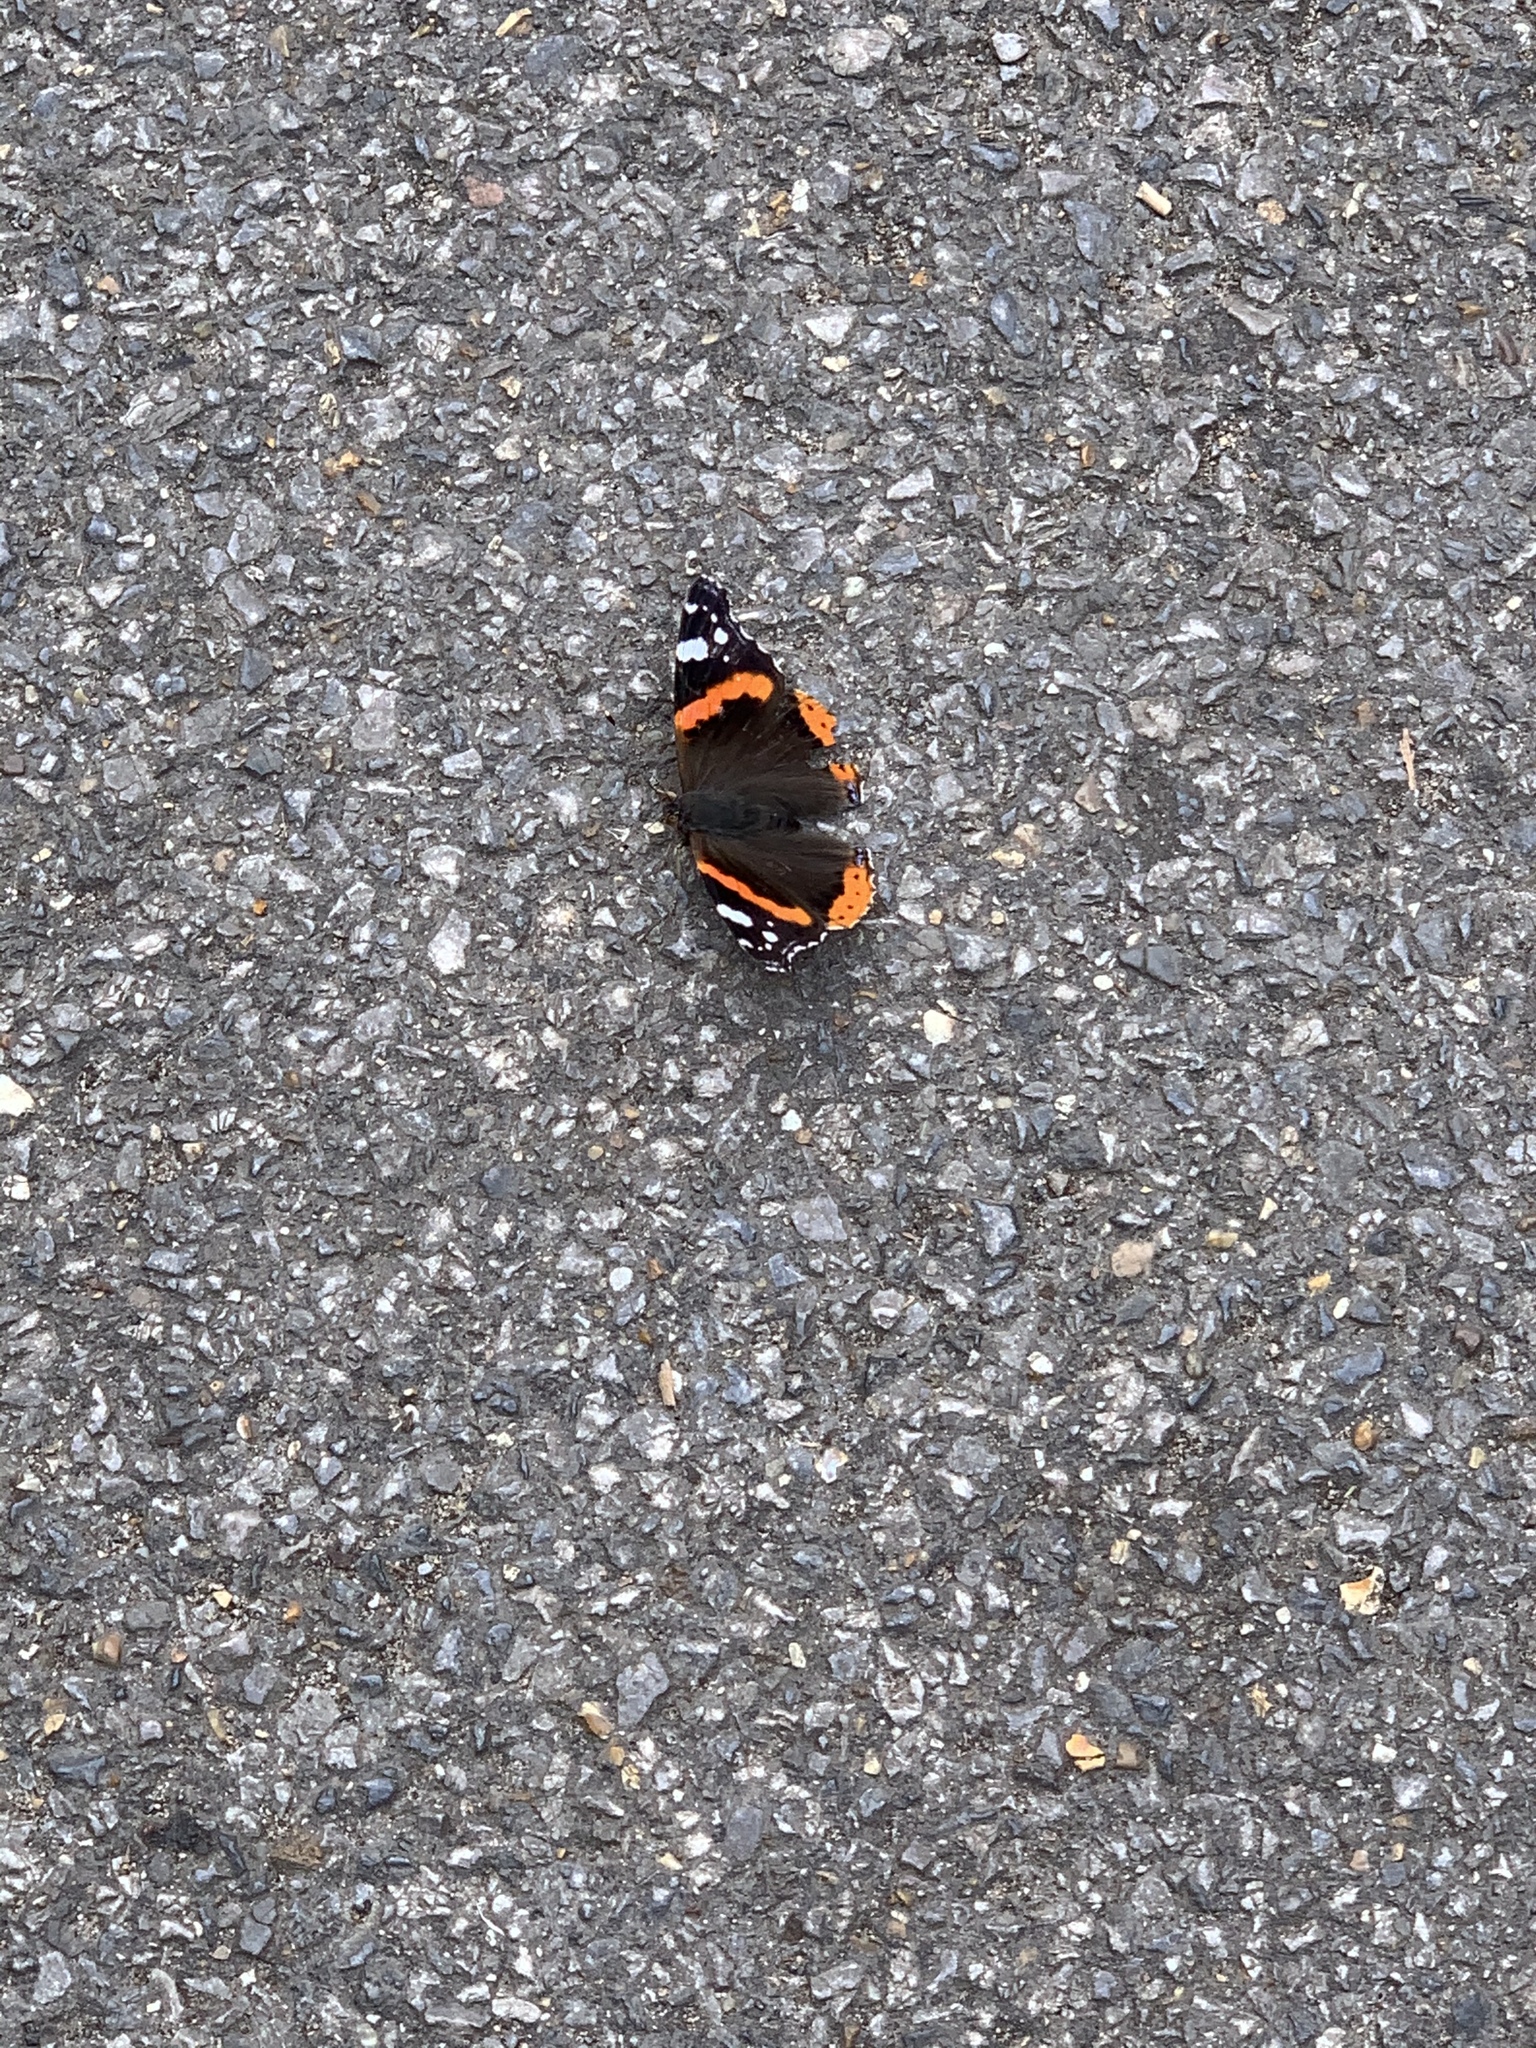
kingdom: Animalia
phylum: Arthropoda
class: Insecta
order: Lepidoptera
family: Nymphalidae
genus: Vanessa
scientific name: Vanessa atalanta
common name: Red admiral
